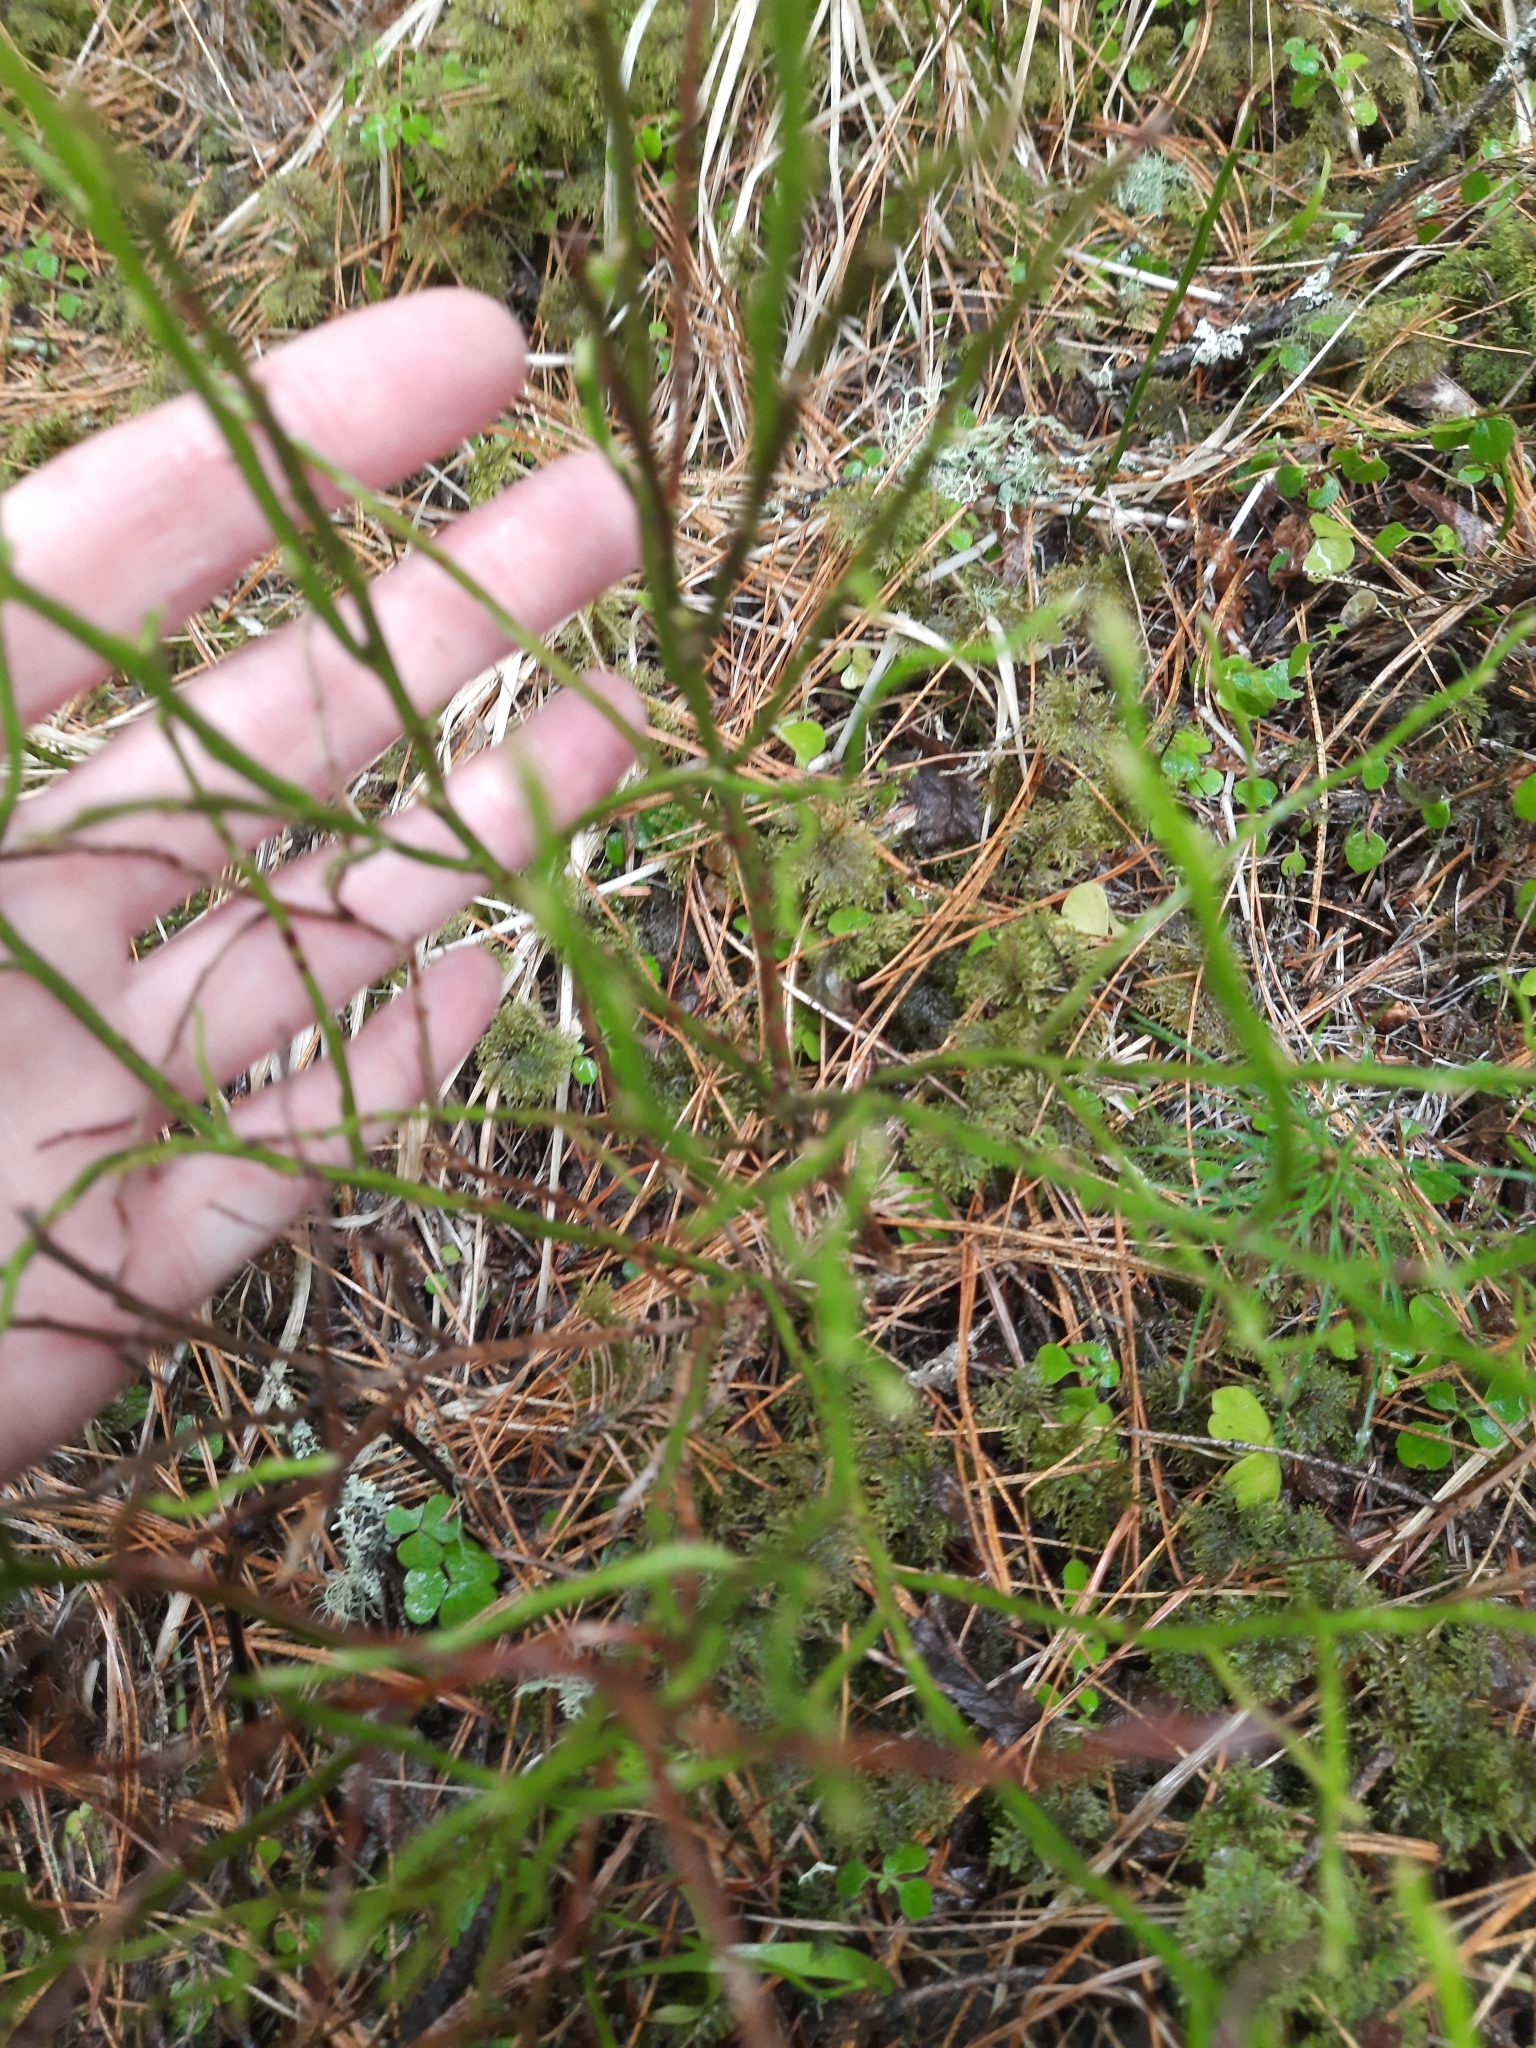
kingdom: Plantae
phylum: Tracheophyta
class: Magnoliopsida
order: Ericales
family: Ericaceae
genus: Vaccinium
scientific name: Vaccinium myrtillus
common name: Bilberry
